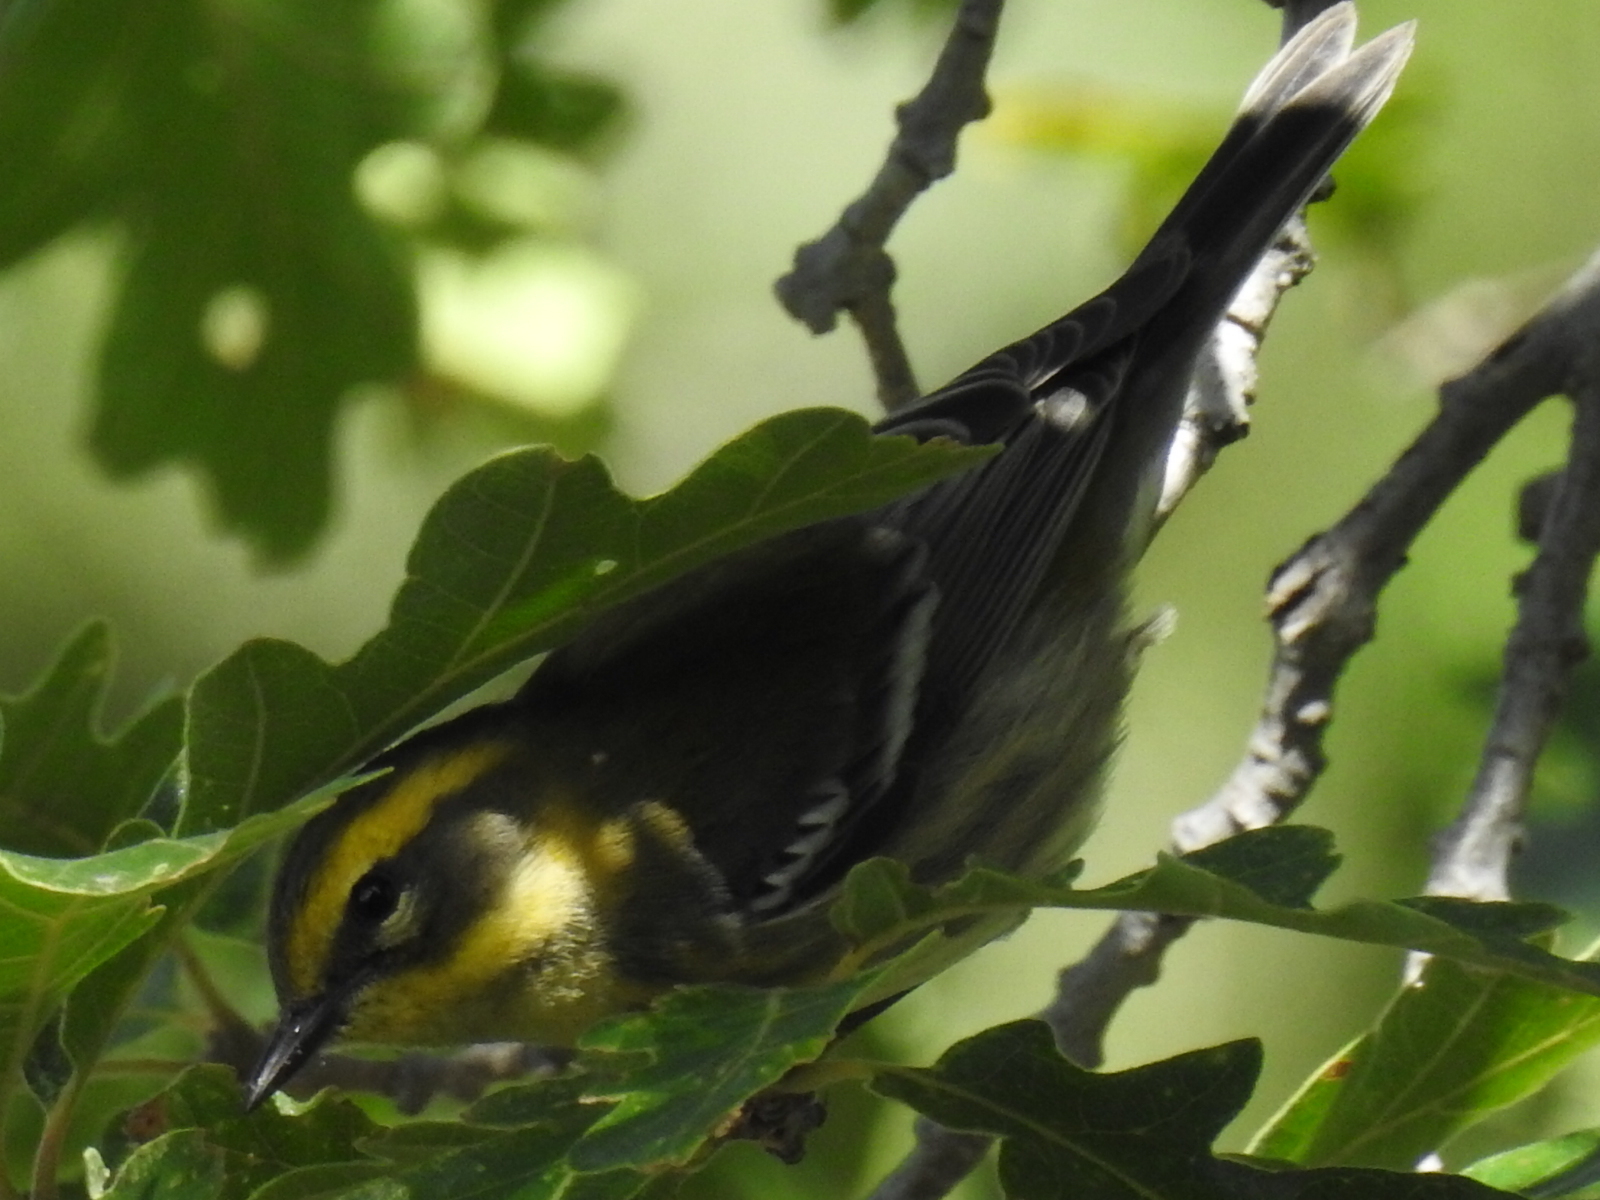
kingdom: Animalia
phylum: Chordata
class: Aves
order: Passeriformes
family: Parulidae
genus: Setophaga
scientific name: Setophaga townsendi
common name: Townsend's warbler
